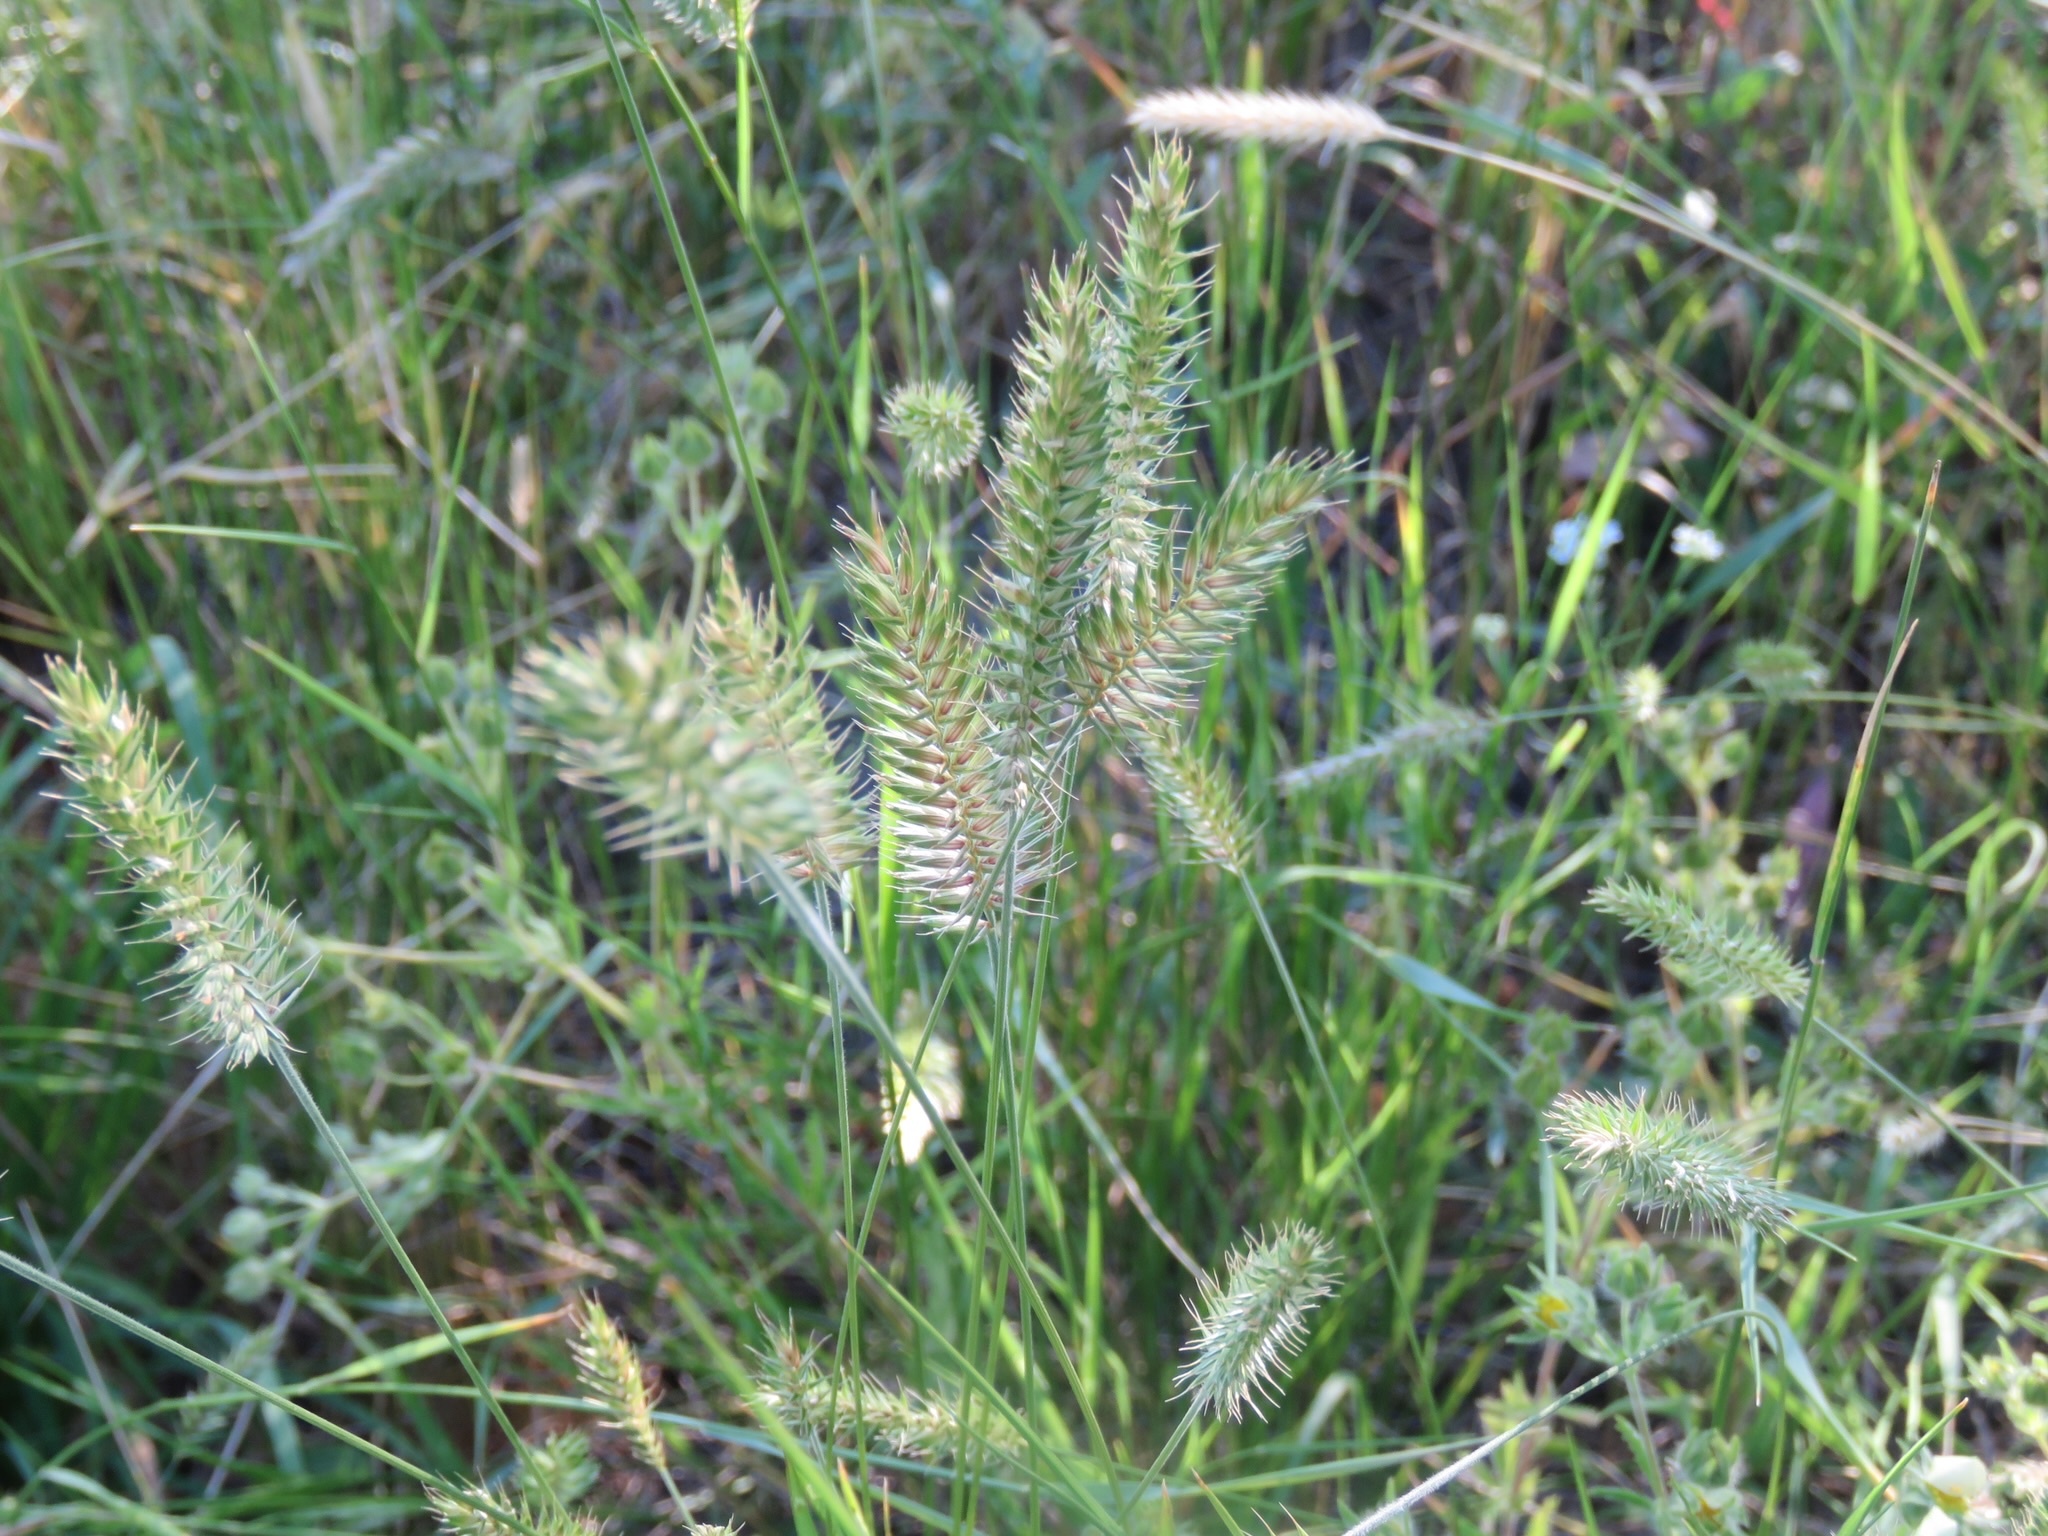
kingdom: Plantae
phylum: Tracheophyta
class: Liliopsida
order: Poales
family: Poaceae
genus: Agropyron
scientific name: Agropyron cristatum
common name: Crested wheatgrass
